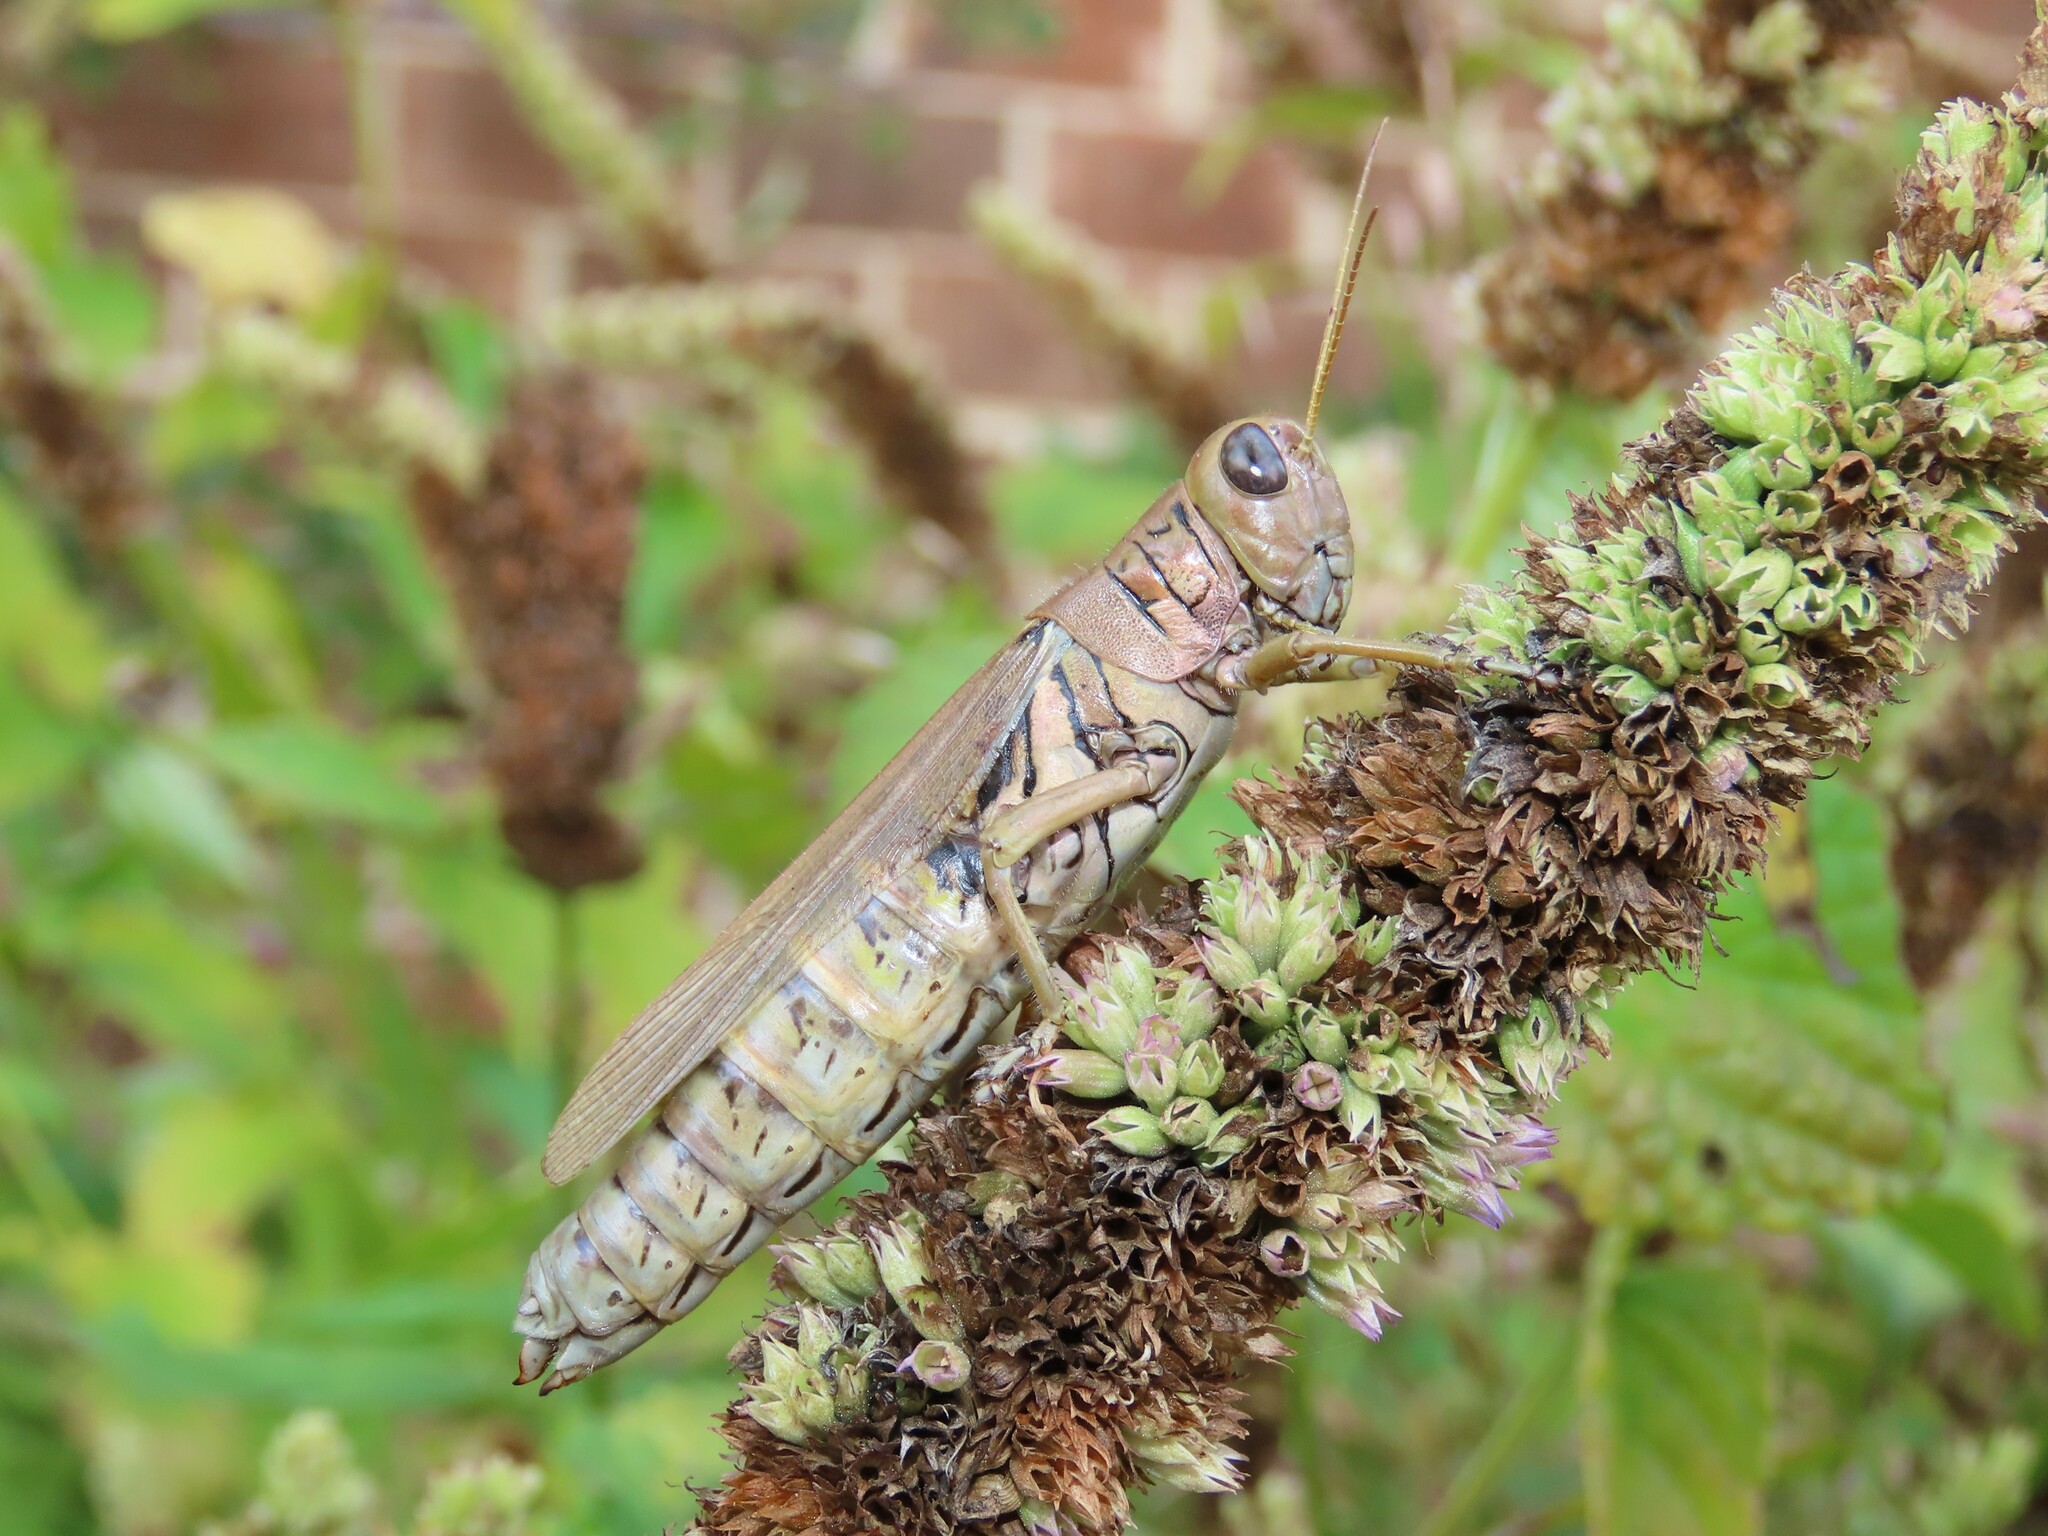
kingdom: Animalia
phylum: Arthropoda
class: Insecta
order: Orthoptera
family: Acrididae
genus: Melanoplus
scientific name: Melanoplus differentialis
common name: Differential grasshopper
